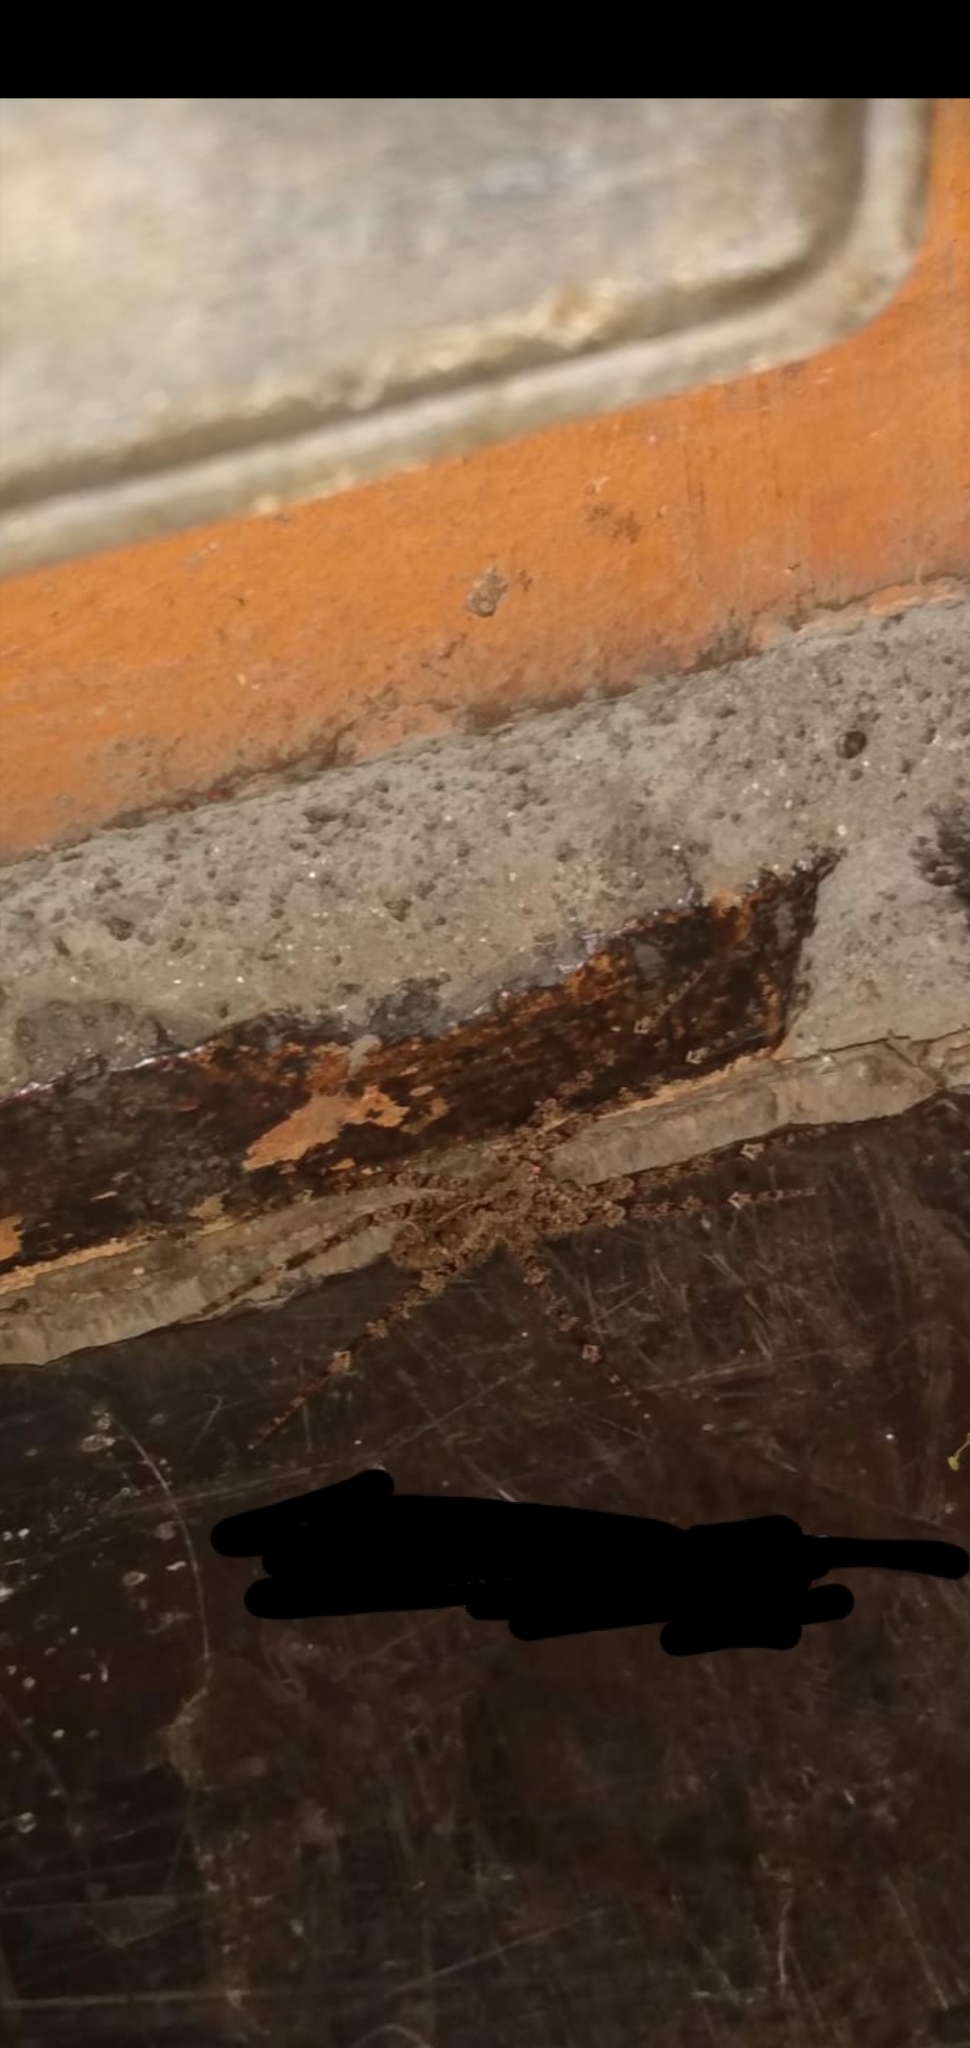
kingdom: Animalia
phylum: Arthropoda
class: Arachnida
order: Araneae
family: Ctenidae
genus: Enoploctenus
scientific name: Enoploctenus cyclothorax
